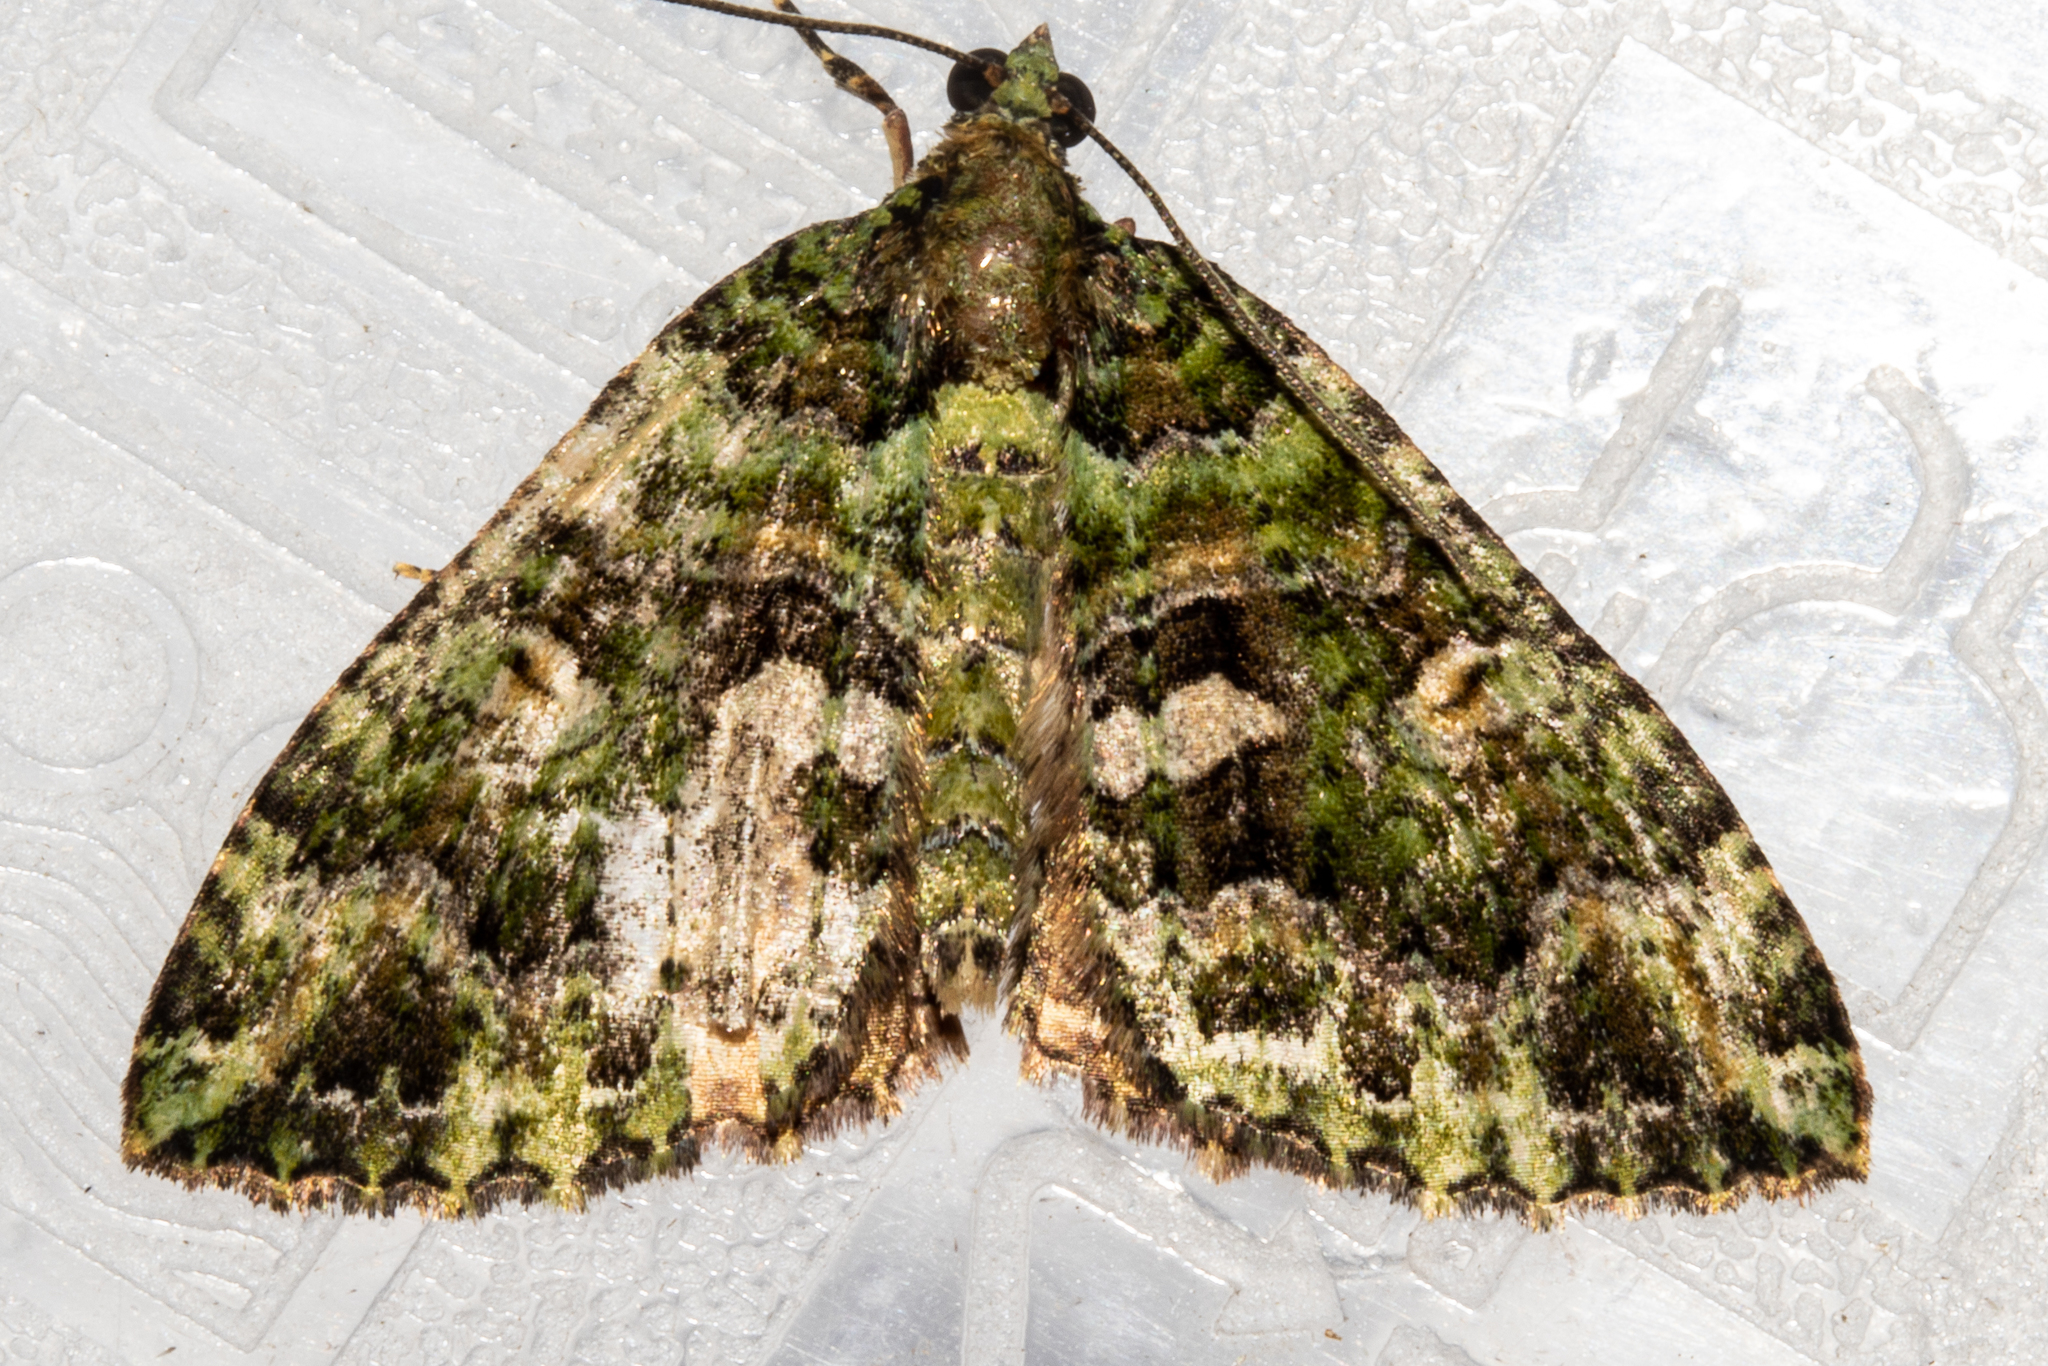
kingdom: Animalia
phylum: Arthropoda
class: Insecta
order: Lepidoptera
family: Geometridae
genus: Austrocidaria
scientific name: Austrocidaria similata
